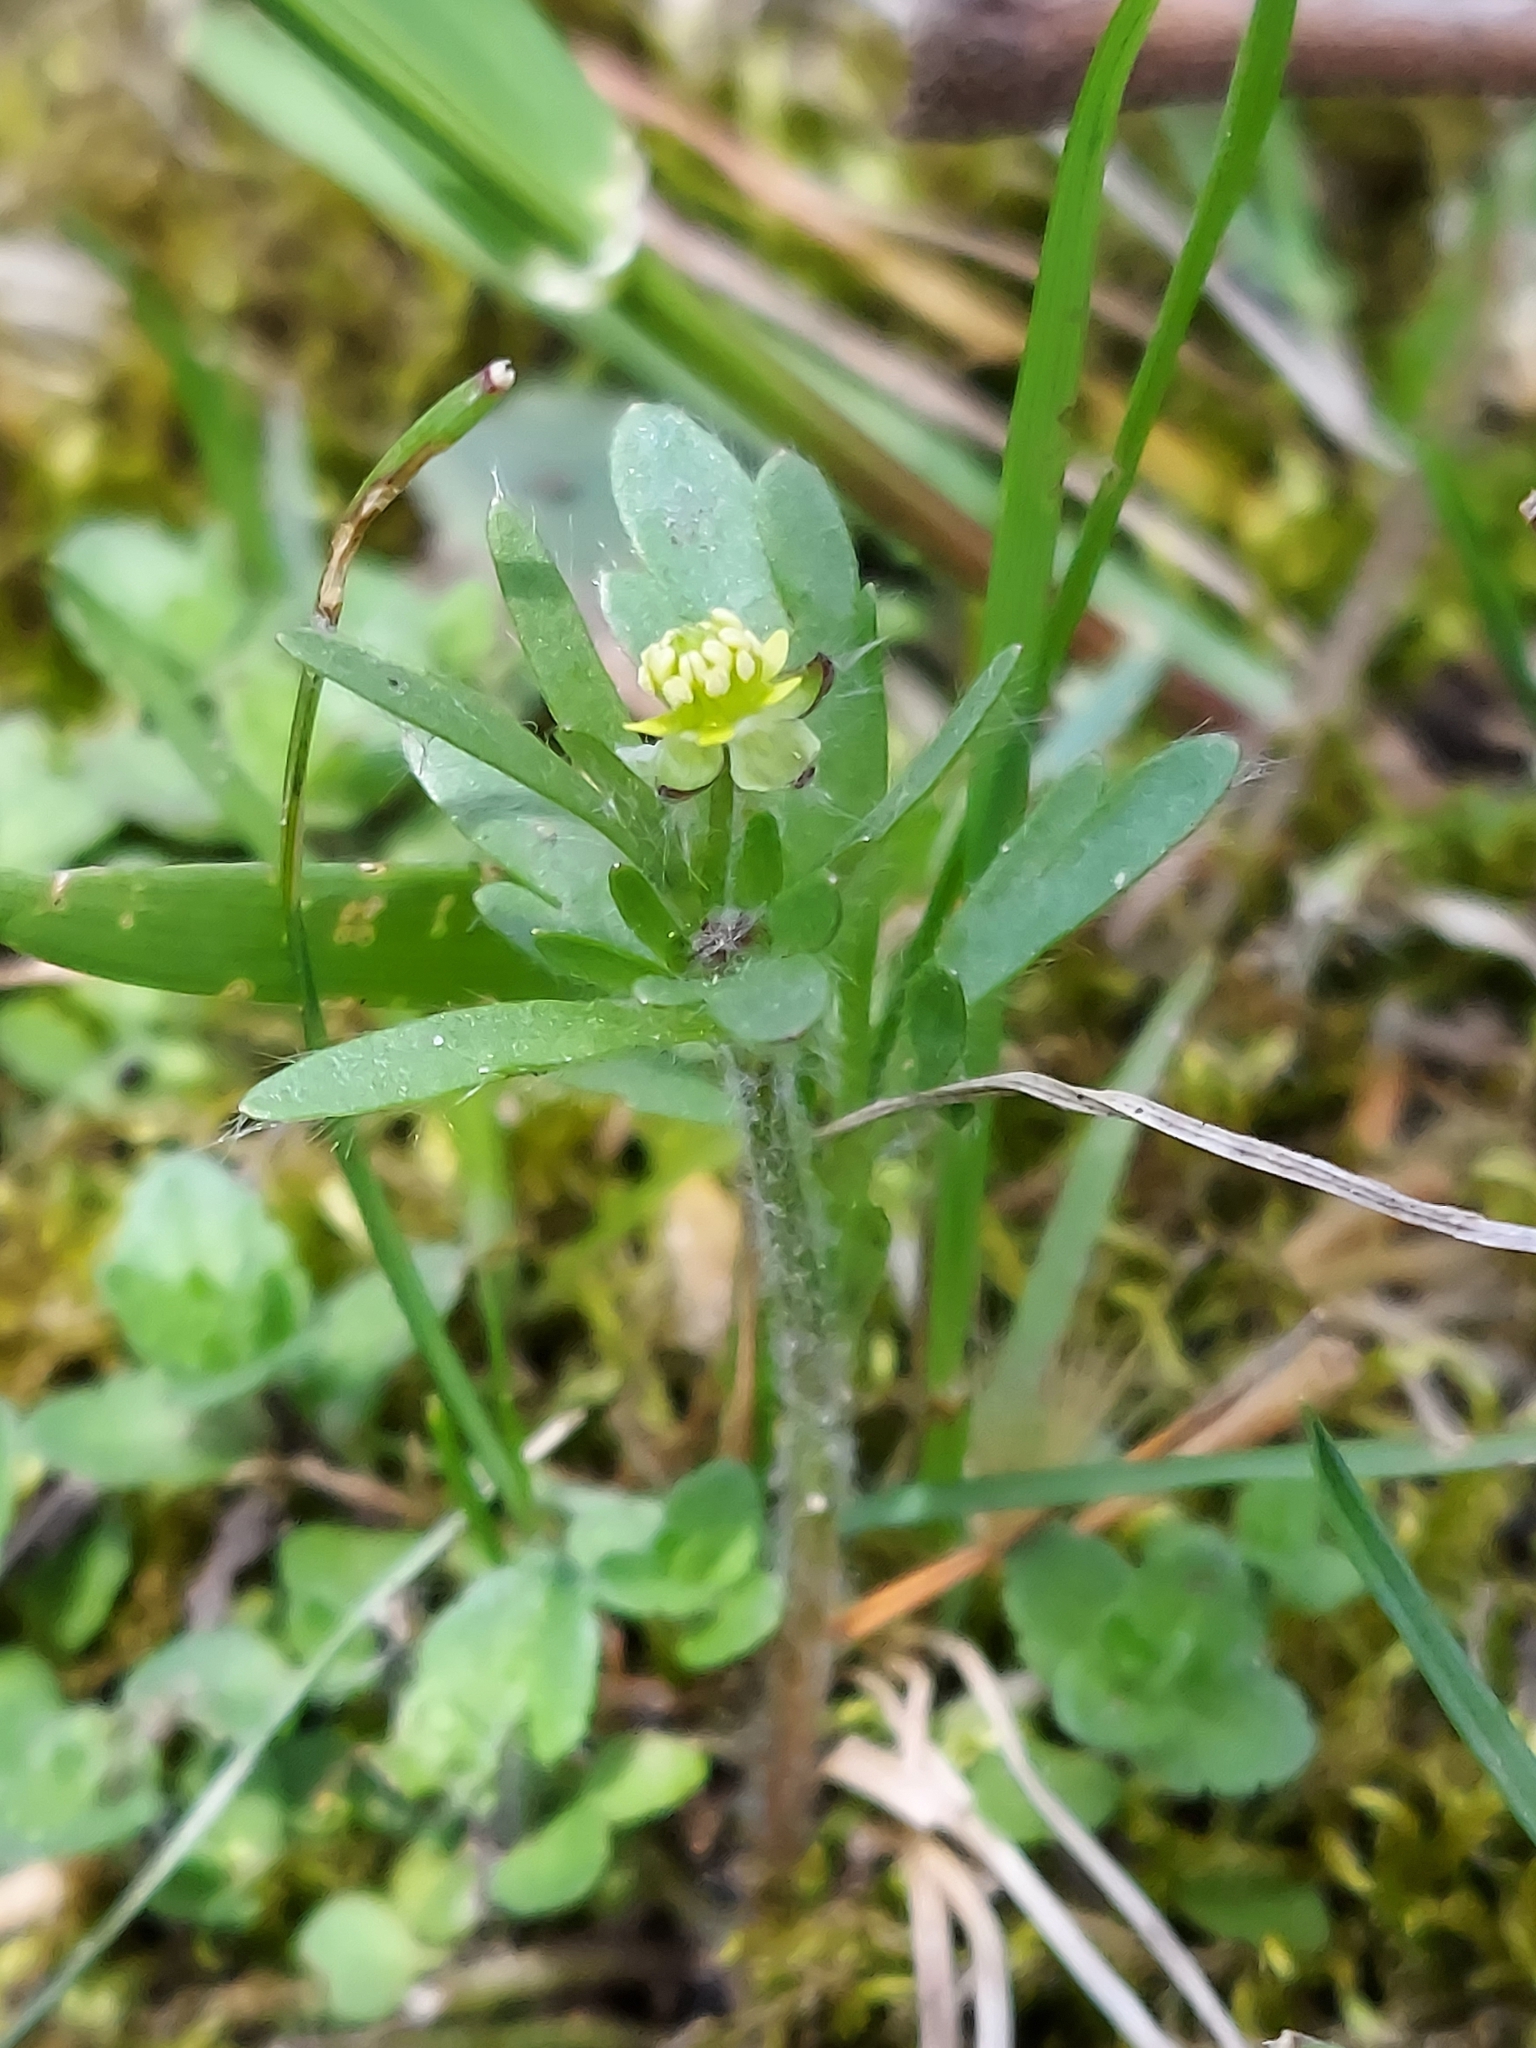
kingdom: Plantae
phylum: Tracheophyta
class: Magnoliopsida
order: Ranunculales
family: Ranunculaceae
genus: Ranunculus
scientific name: Ranunculus micranthus
